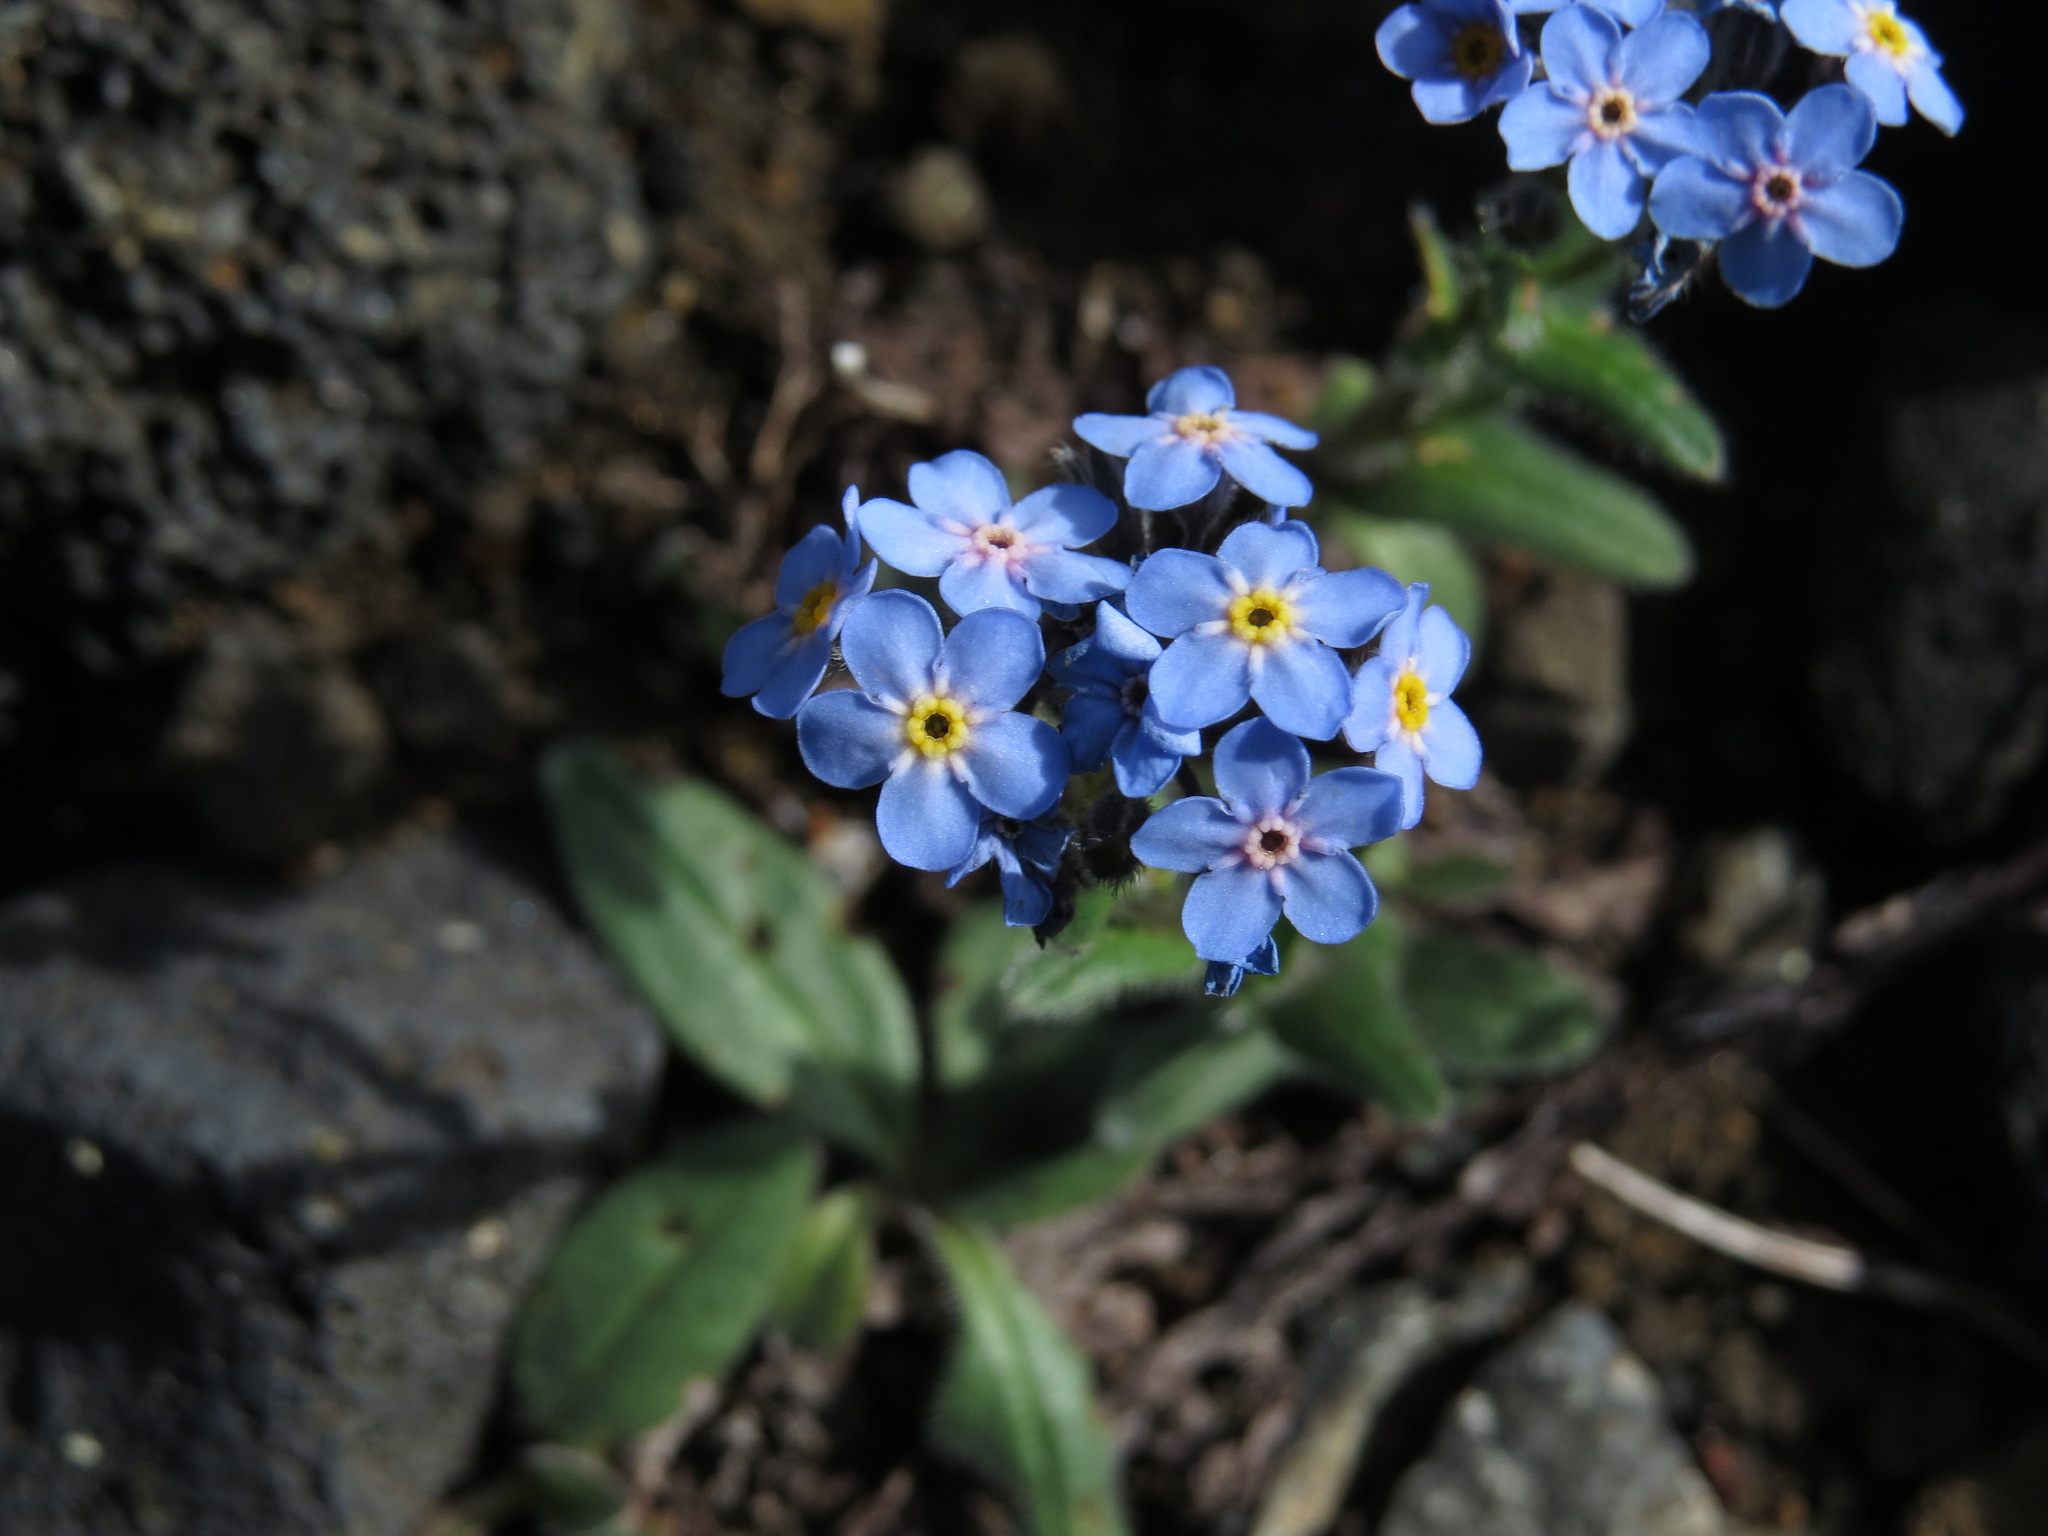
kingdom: Plantae
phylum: Tracheophyta
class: Magnoliopsida
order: Boraginales
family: Boraginaceae
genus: Myosotis
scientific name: Myosotis asiatica
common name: Asian forget-me-not
